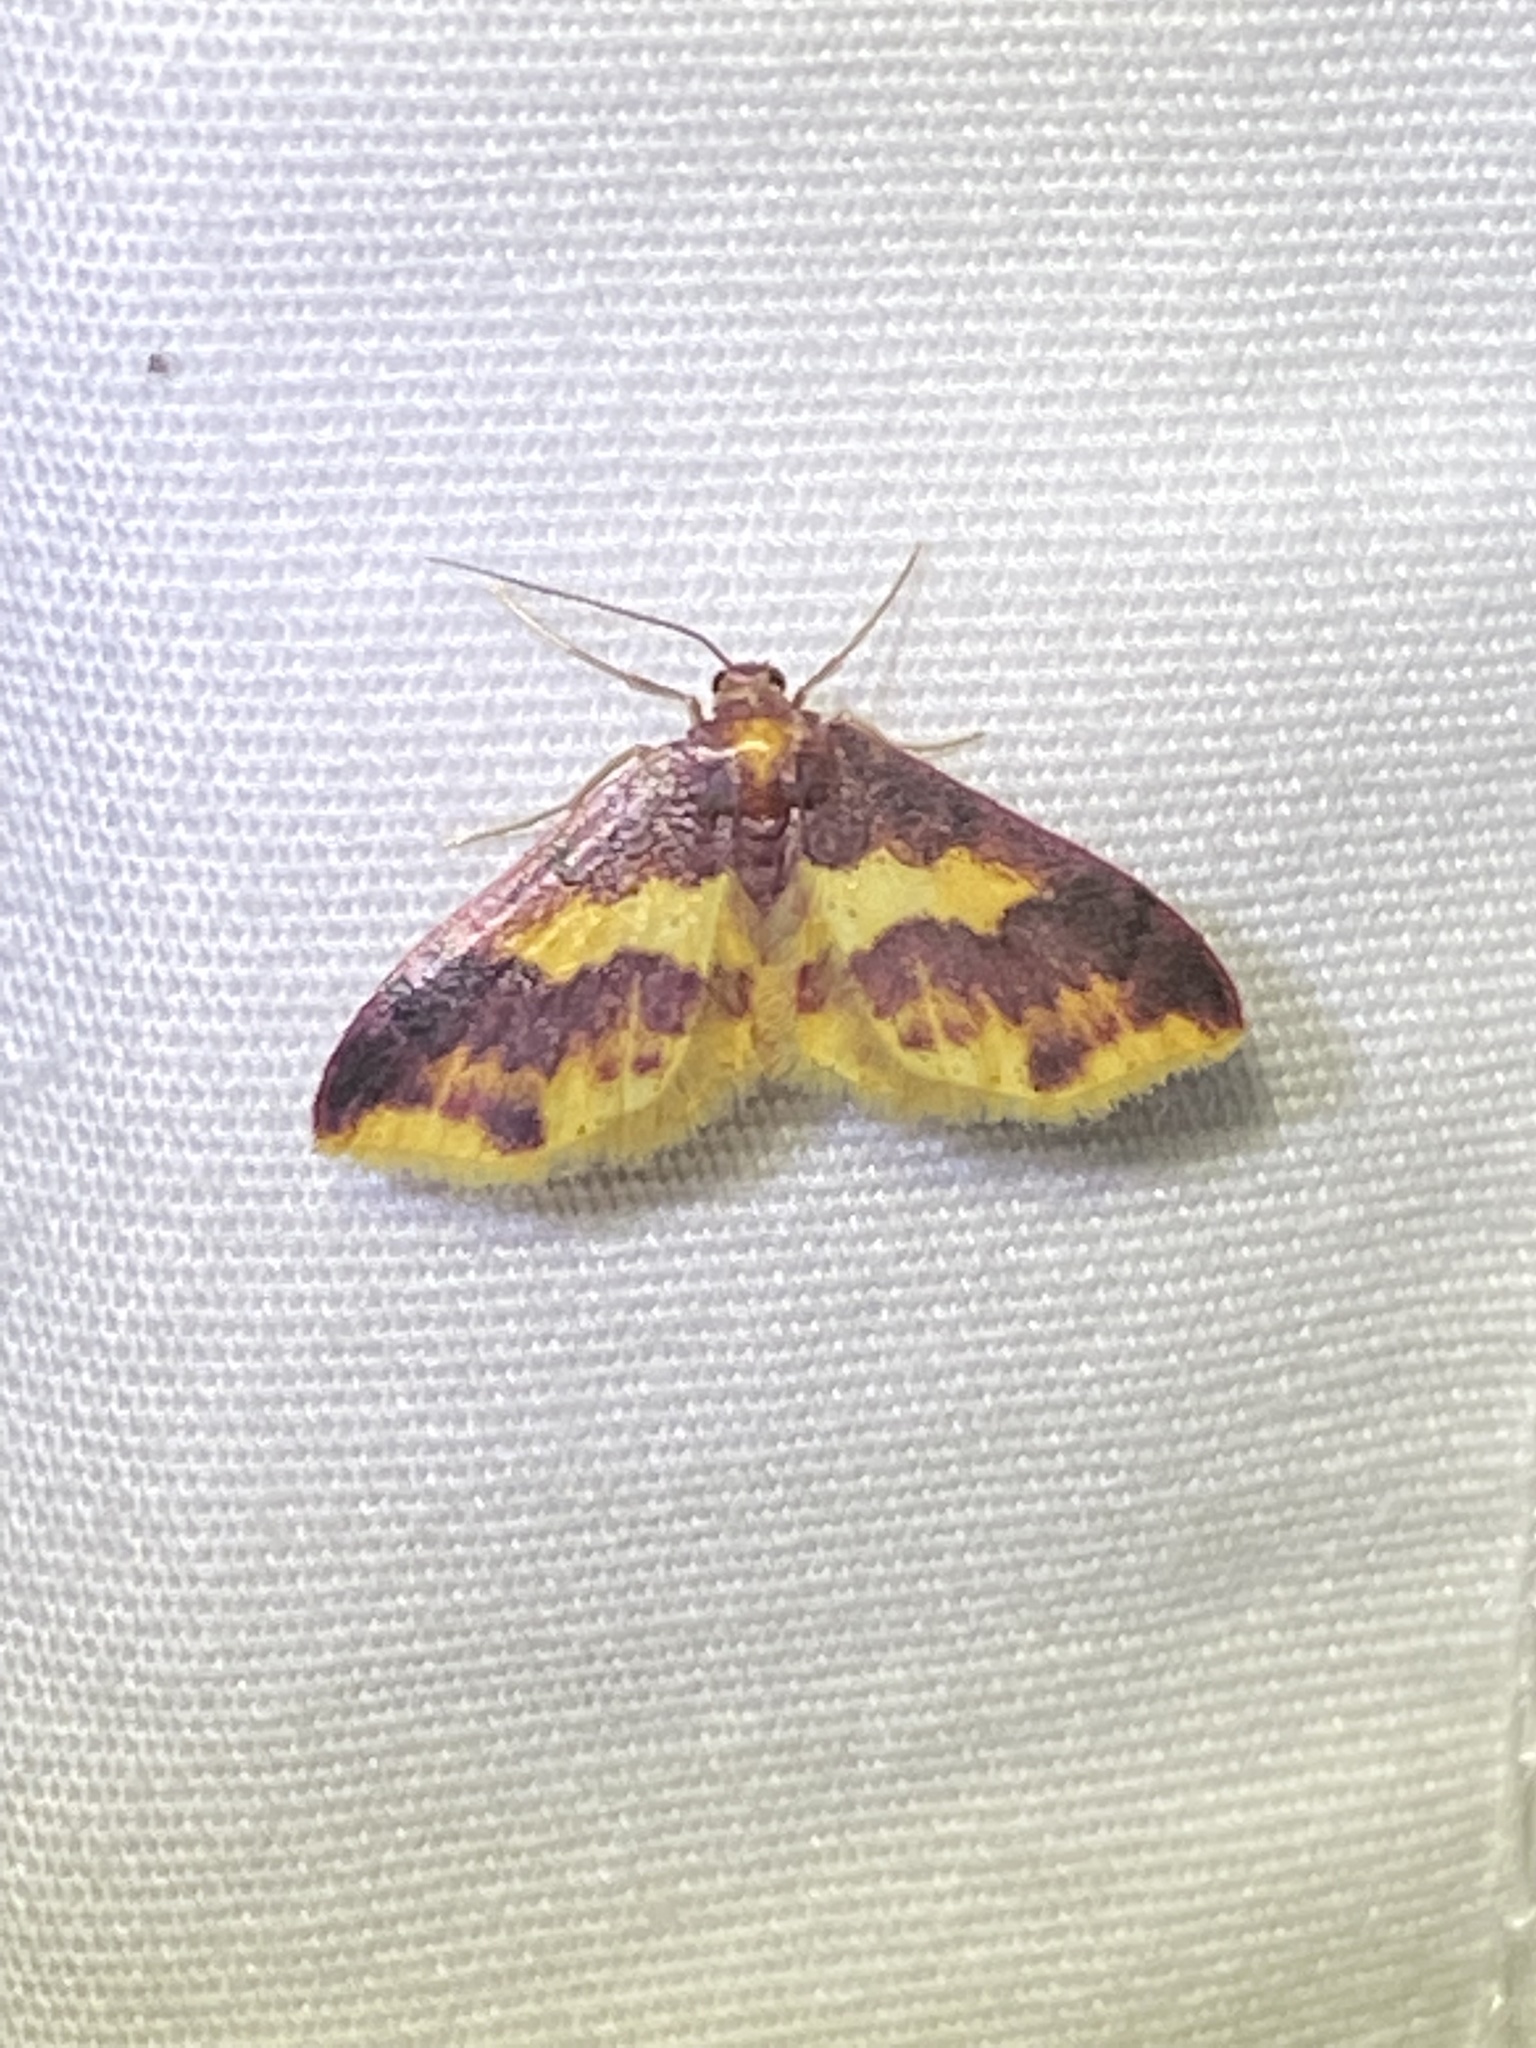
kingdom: Animalia
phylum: Arthropoda
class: Insecta
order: Lepidoptera
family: Geometridae
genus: Lophosis
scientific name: Lophosis labeculata
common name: Stained lophosis moth
